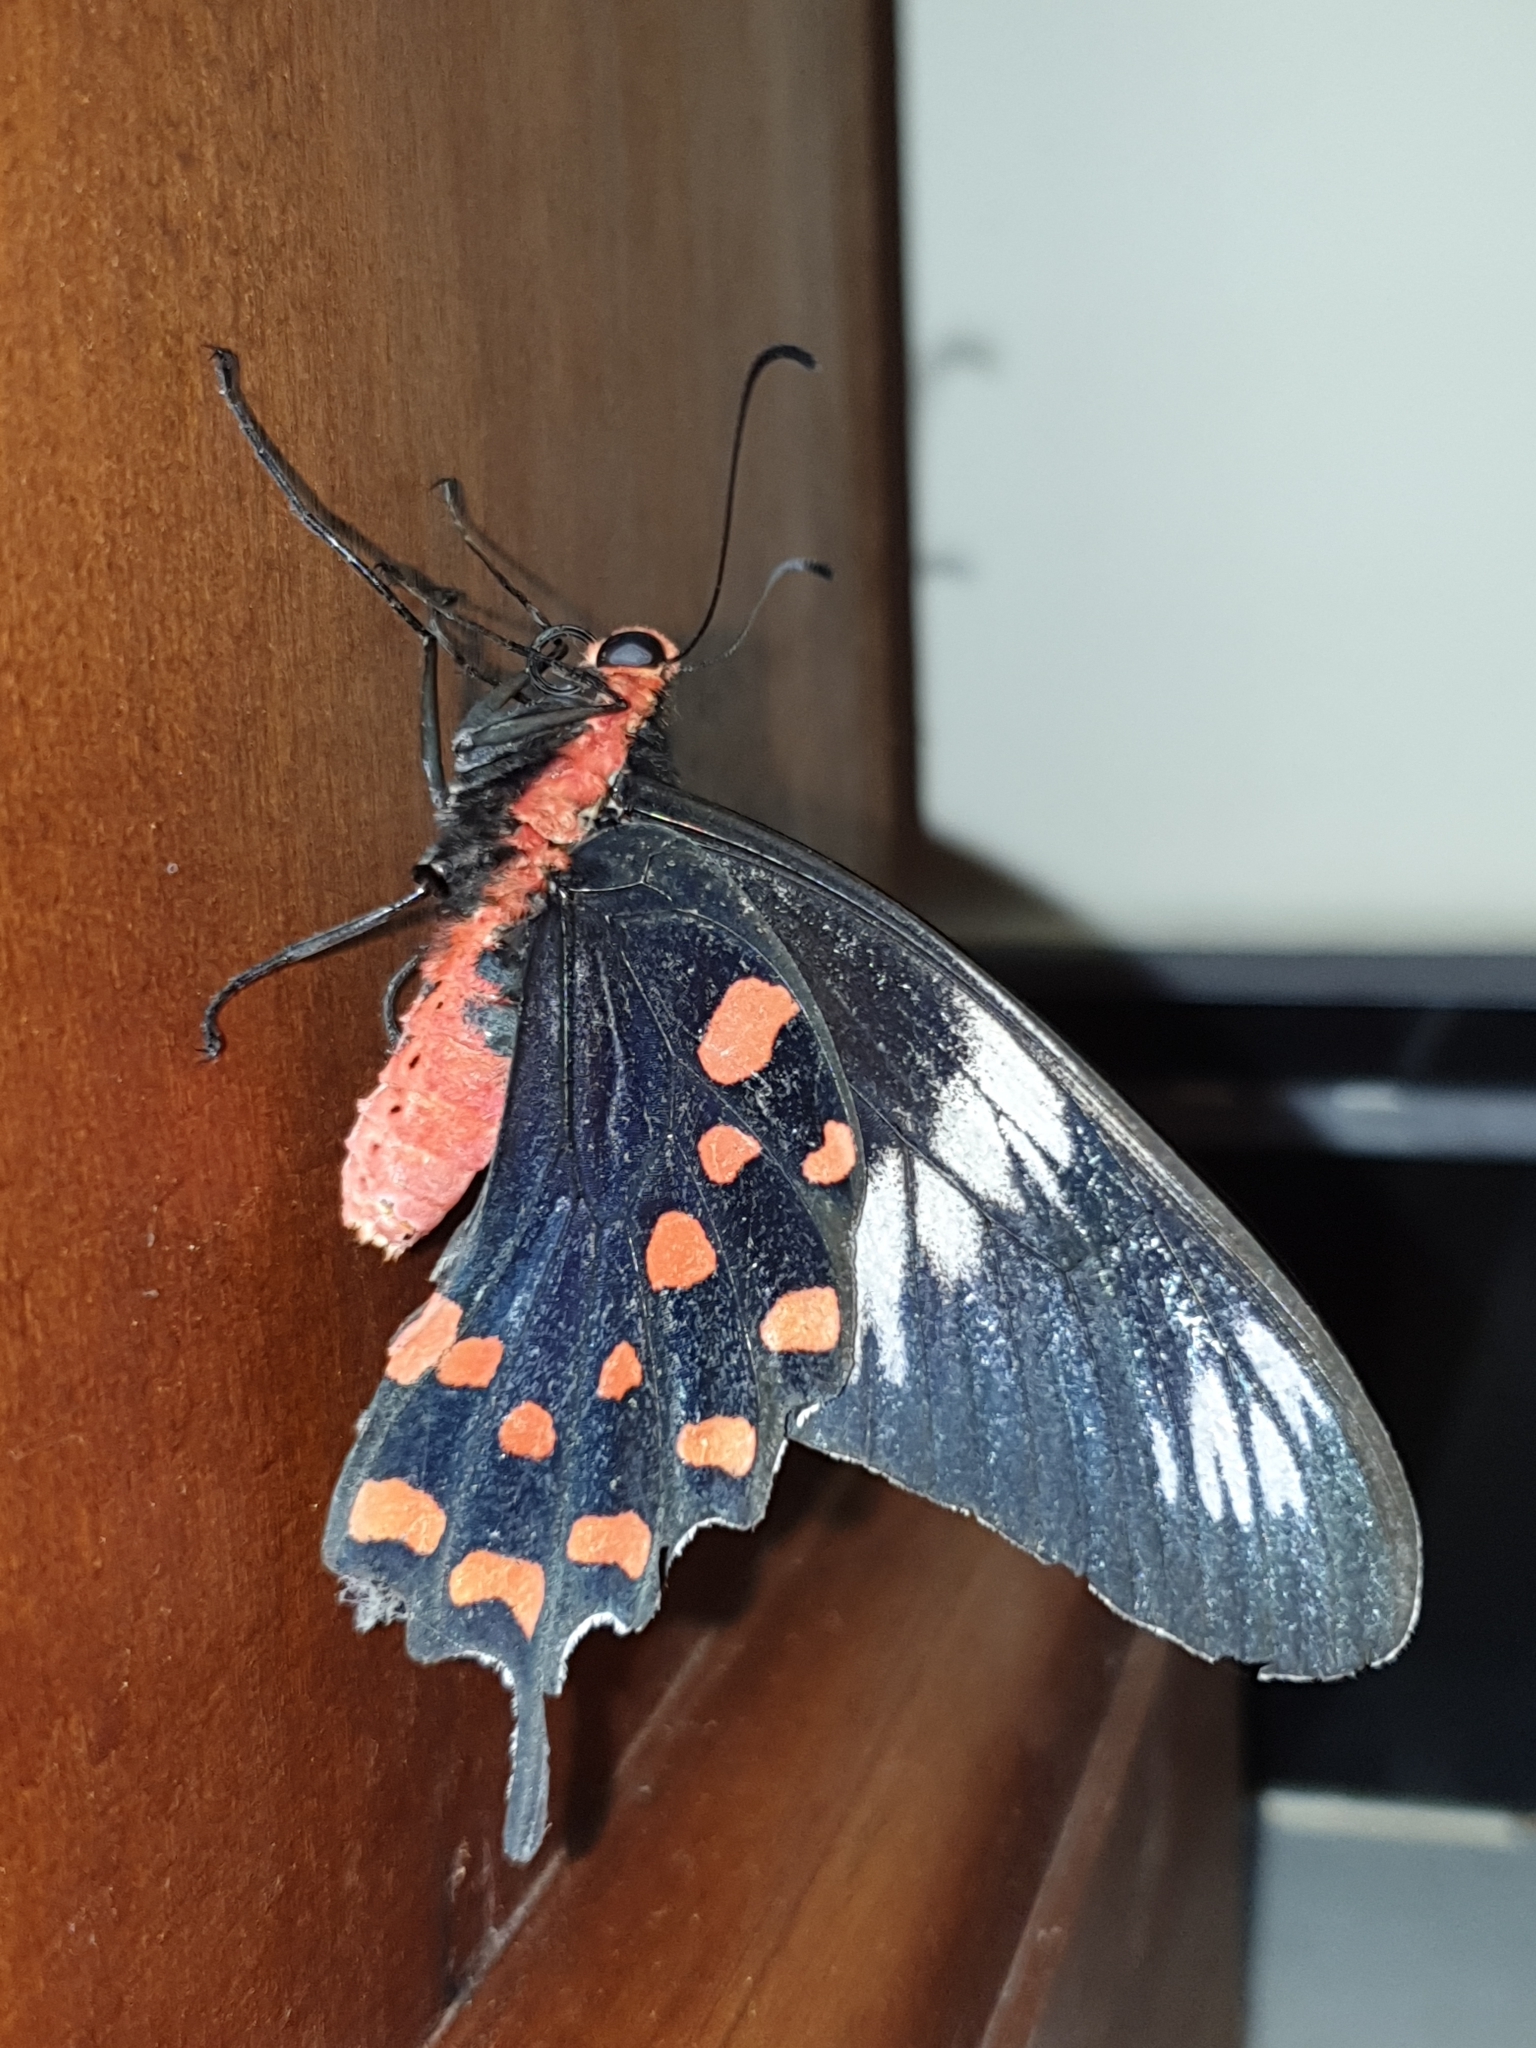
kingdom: Animalia
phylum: Arthropoda
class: Insecta
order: Lepidoptera
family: Papilionidae
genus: Pachliopta
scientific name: Pachliopta hector
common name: Crimson rose
